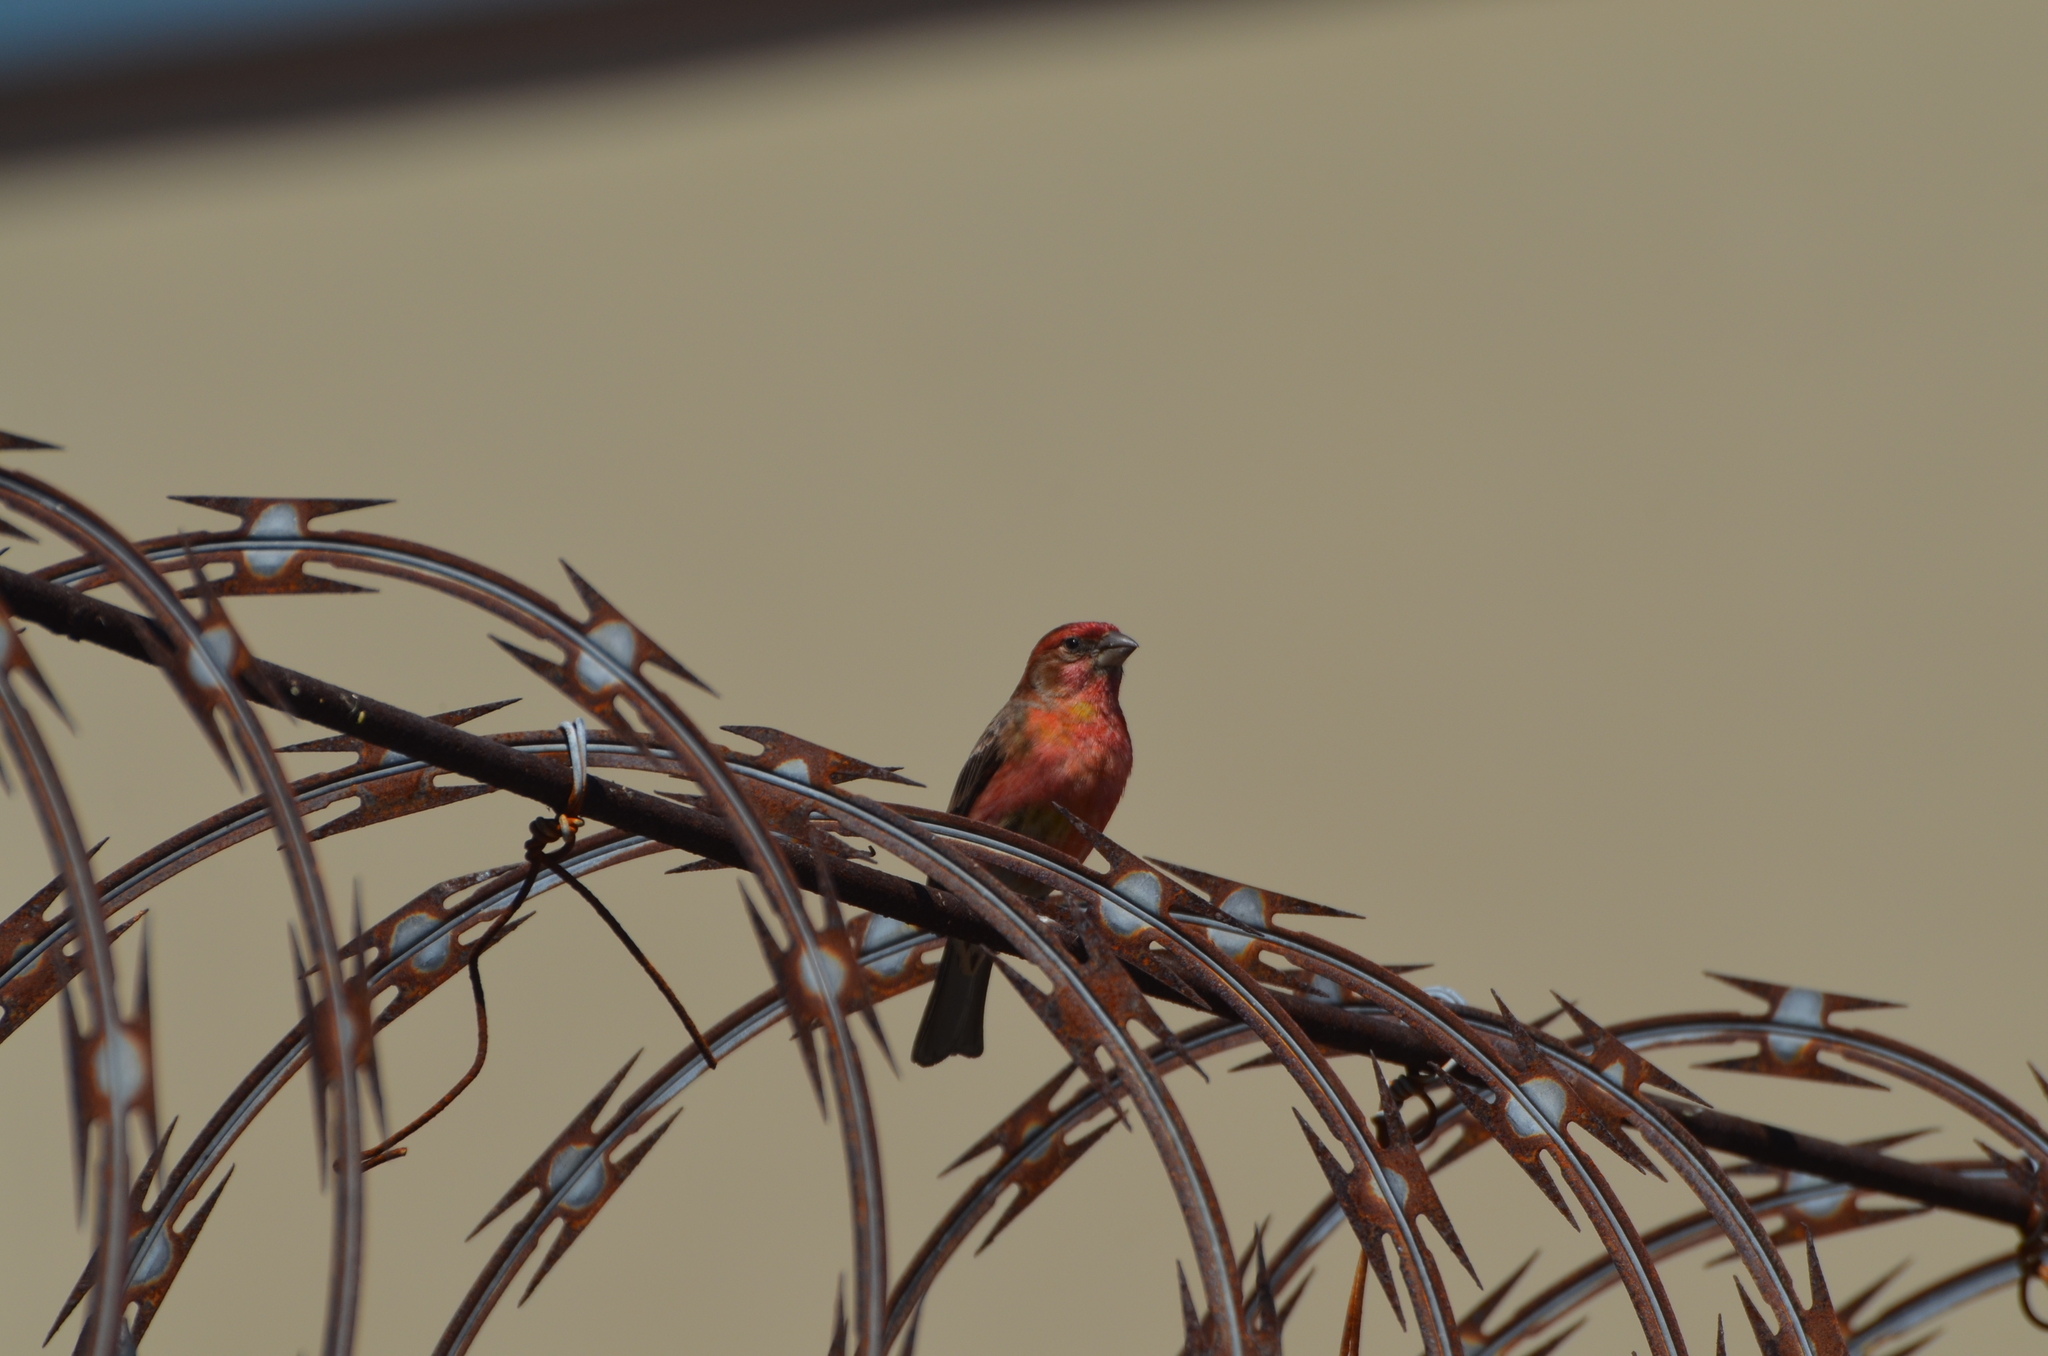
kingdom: Animalia
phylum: Chordata
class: Aves
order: Passeriformes
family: Fringillidae
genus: Haemorhous
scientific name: Haemorhous mexicanus
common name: House finch
